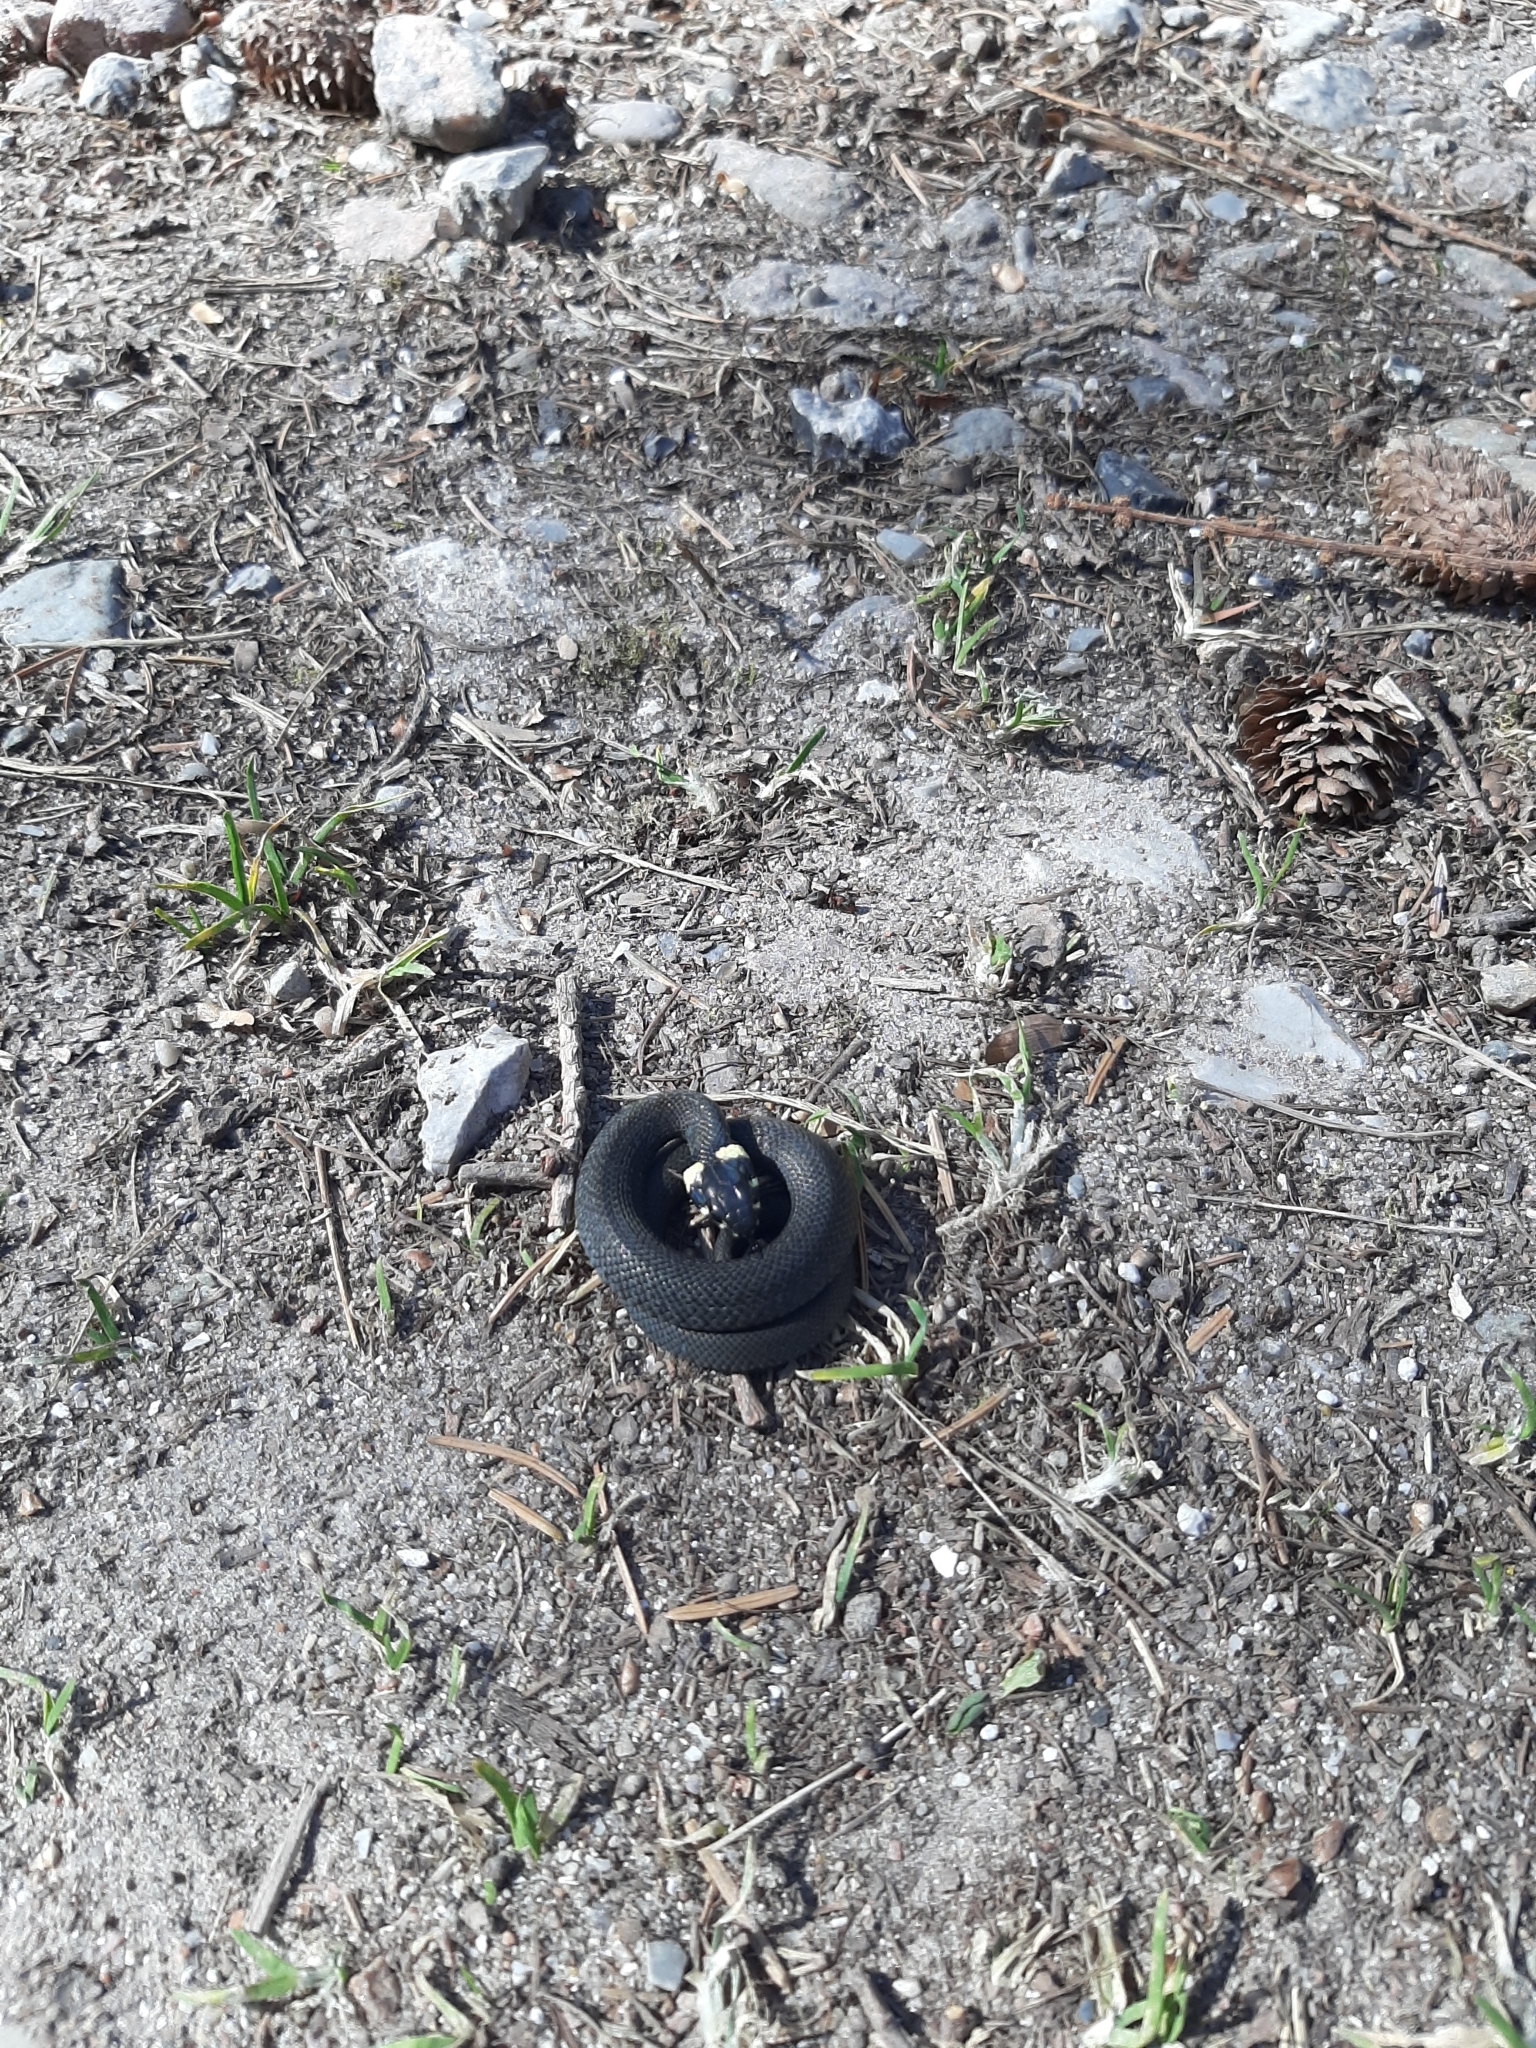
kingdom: Animalia
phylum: Chordata
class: Squamata
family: Colubridae
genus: Natrix
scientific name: Natrix natrix
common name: Grass snake
